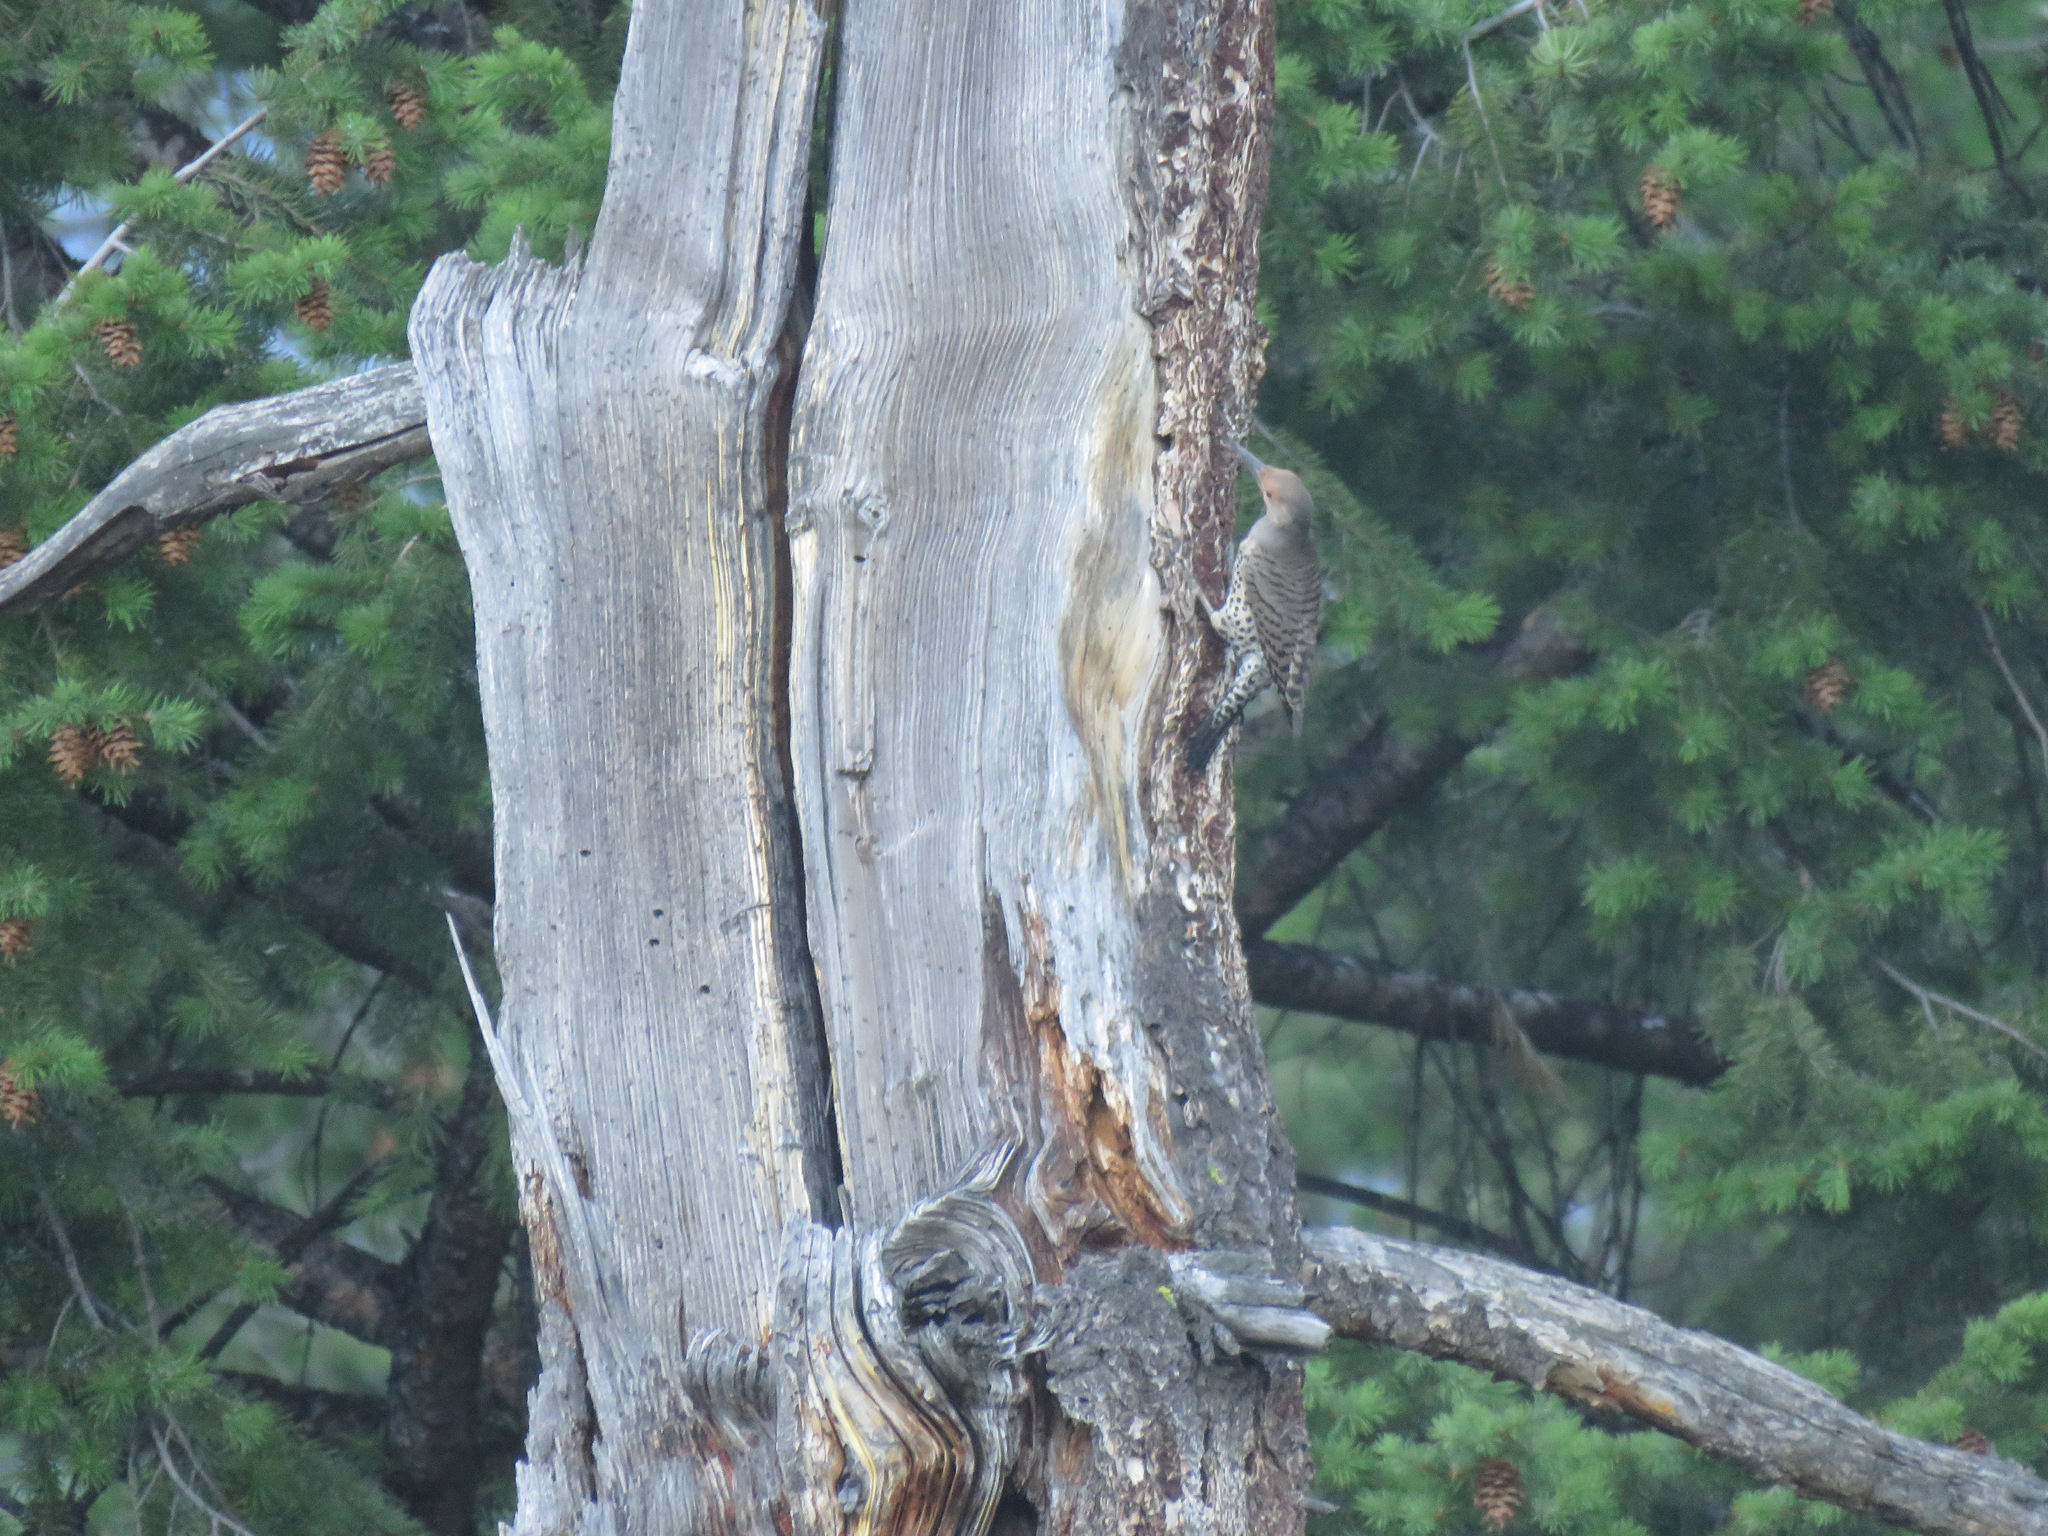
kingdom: Animalia
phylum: Chordata
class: Aves
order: Piciformes
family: Picidae
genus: Colaptes
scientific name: Colaptes auratus
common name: Northern flicker
